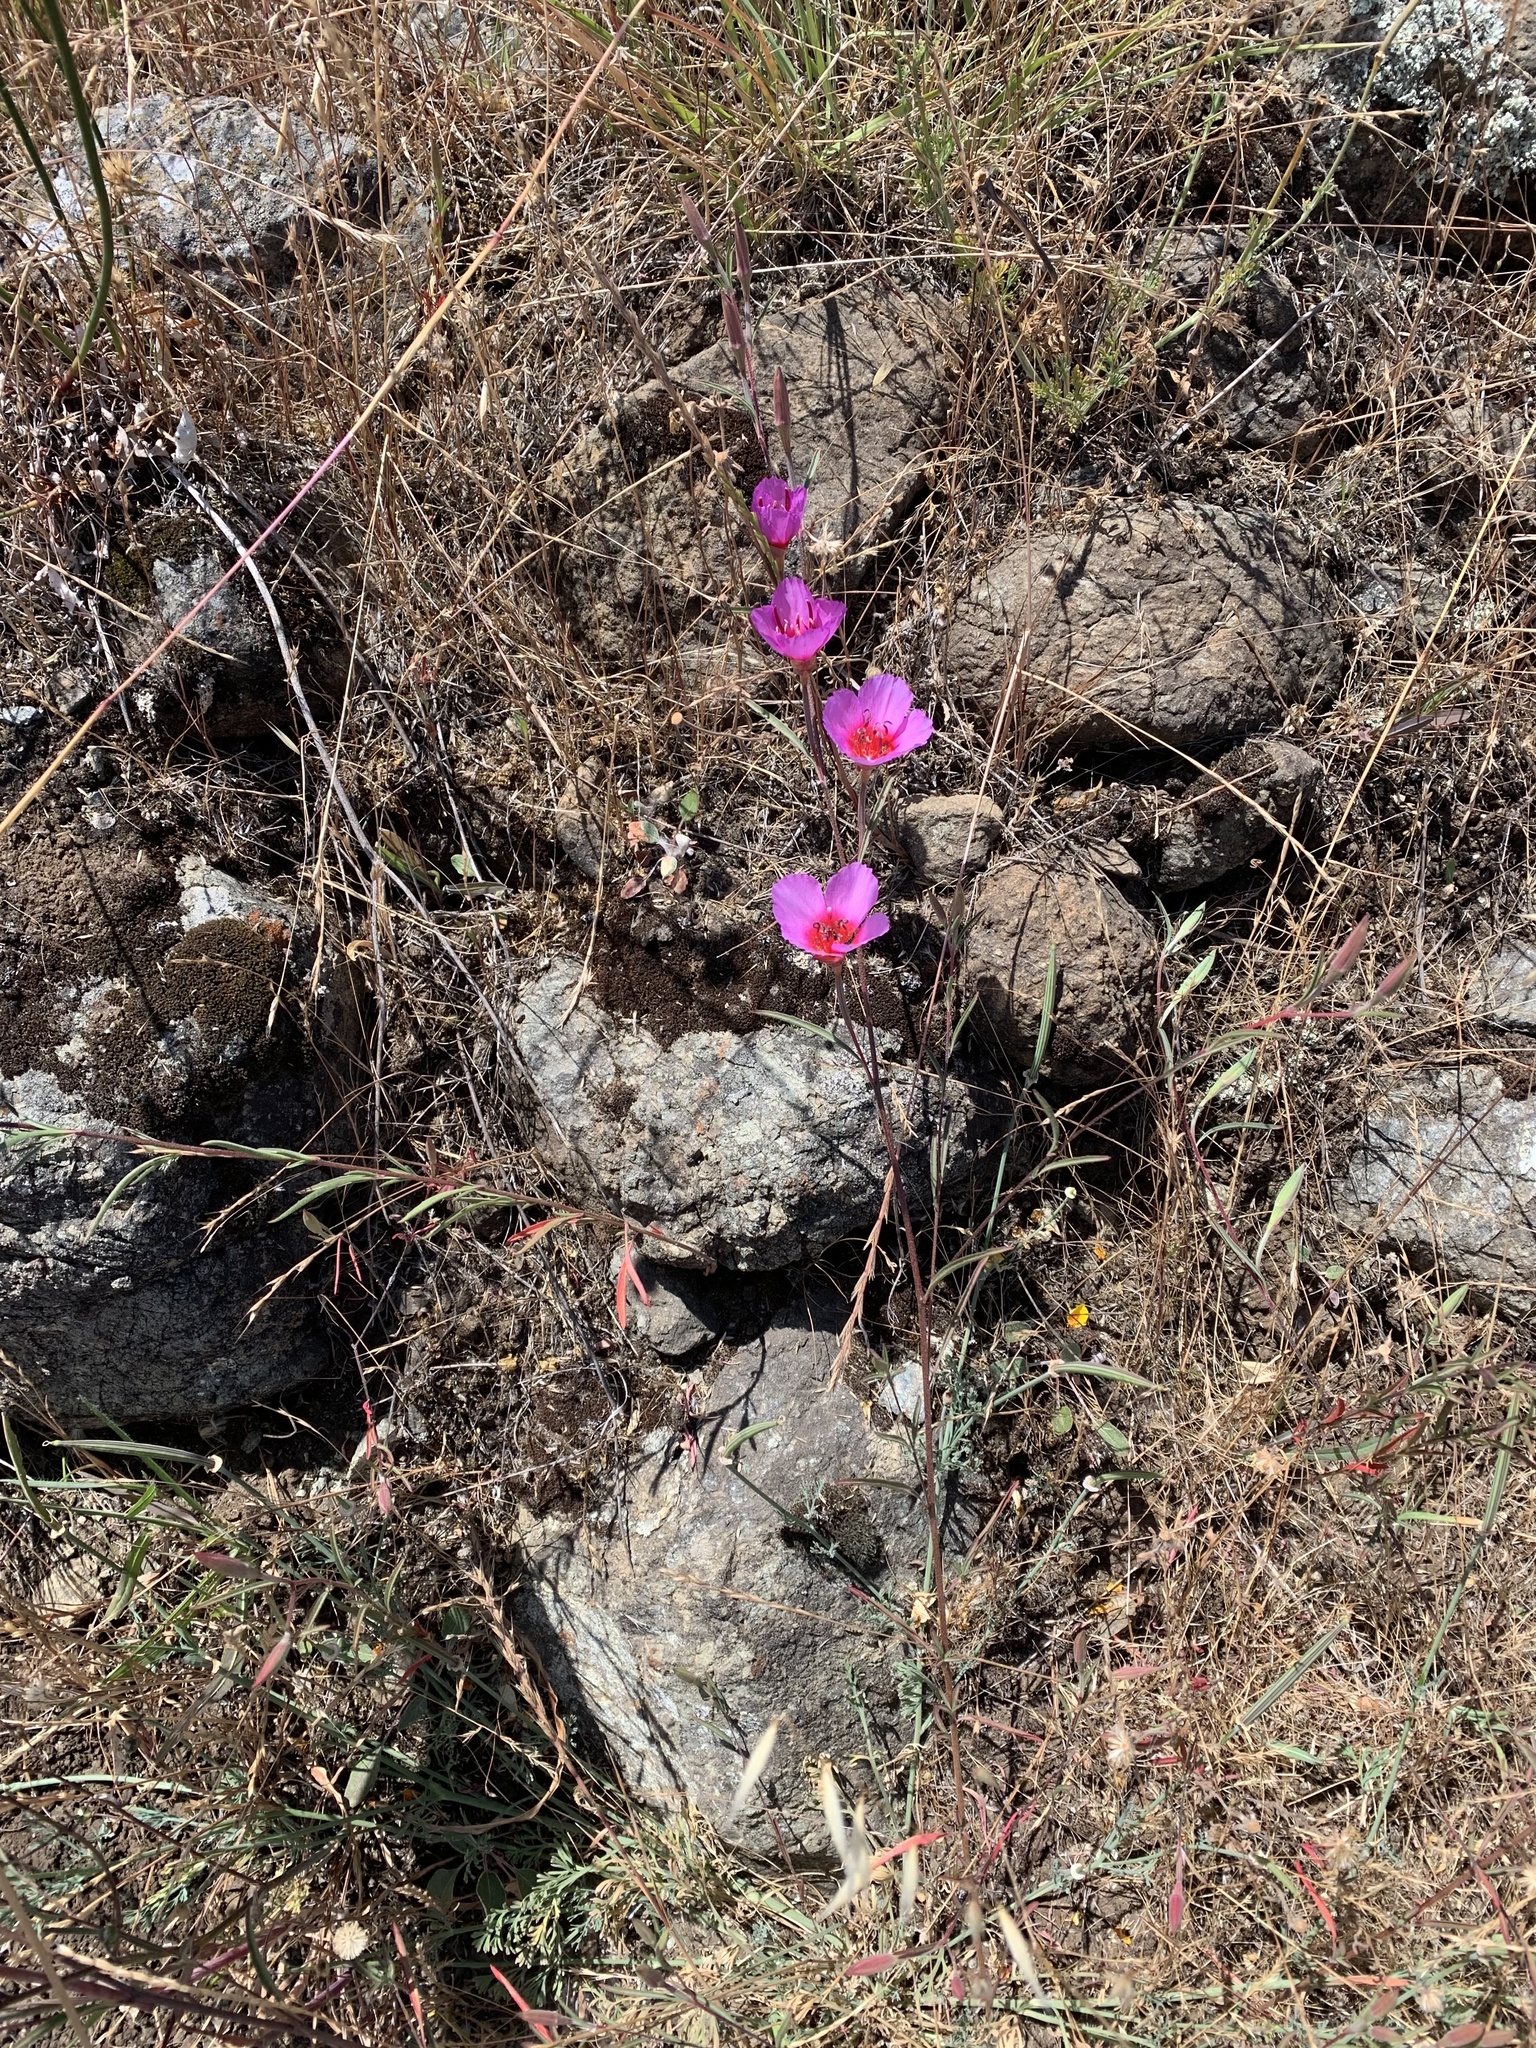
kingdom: Plantae
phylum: Tracheophyta
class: Magnoliopsida
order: Myrtales
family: Onagraceae
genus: Clarkia
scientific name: Clarkia rubicunda
